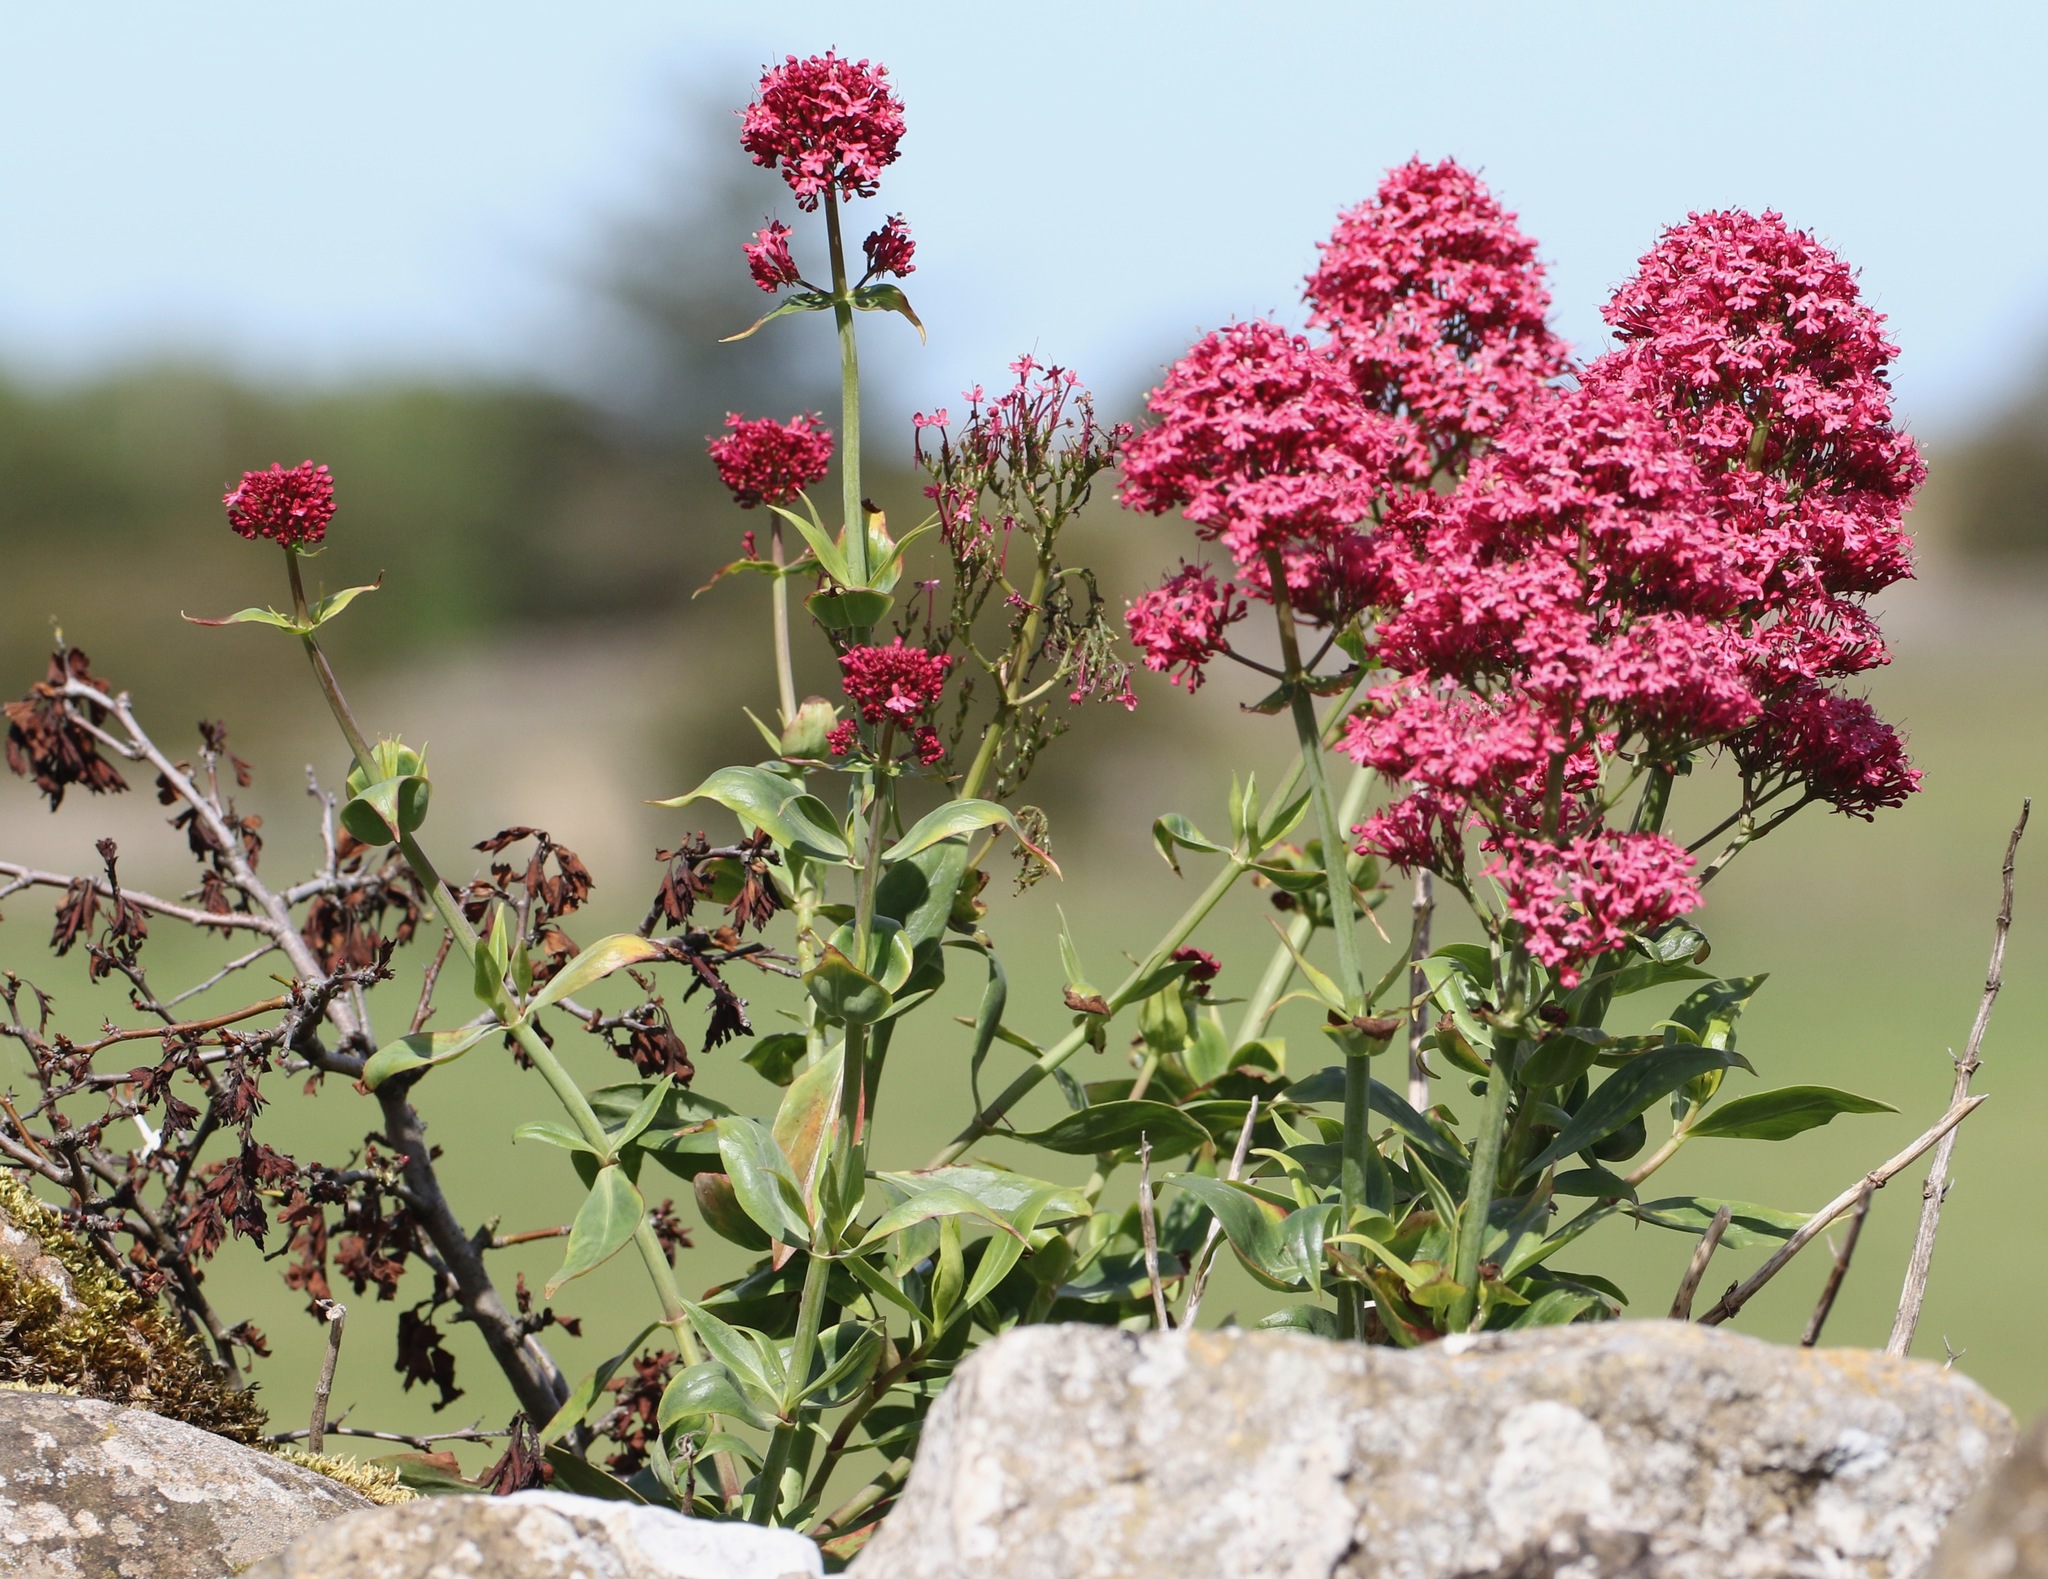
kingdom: Plantae
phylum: Tracheophyta
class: Magnoliopsida
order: Dipsacales
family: Caprifoliaceae
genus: Centranthus
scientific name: Centranthus ruber
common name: Red valerian
